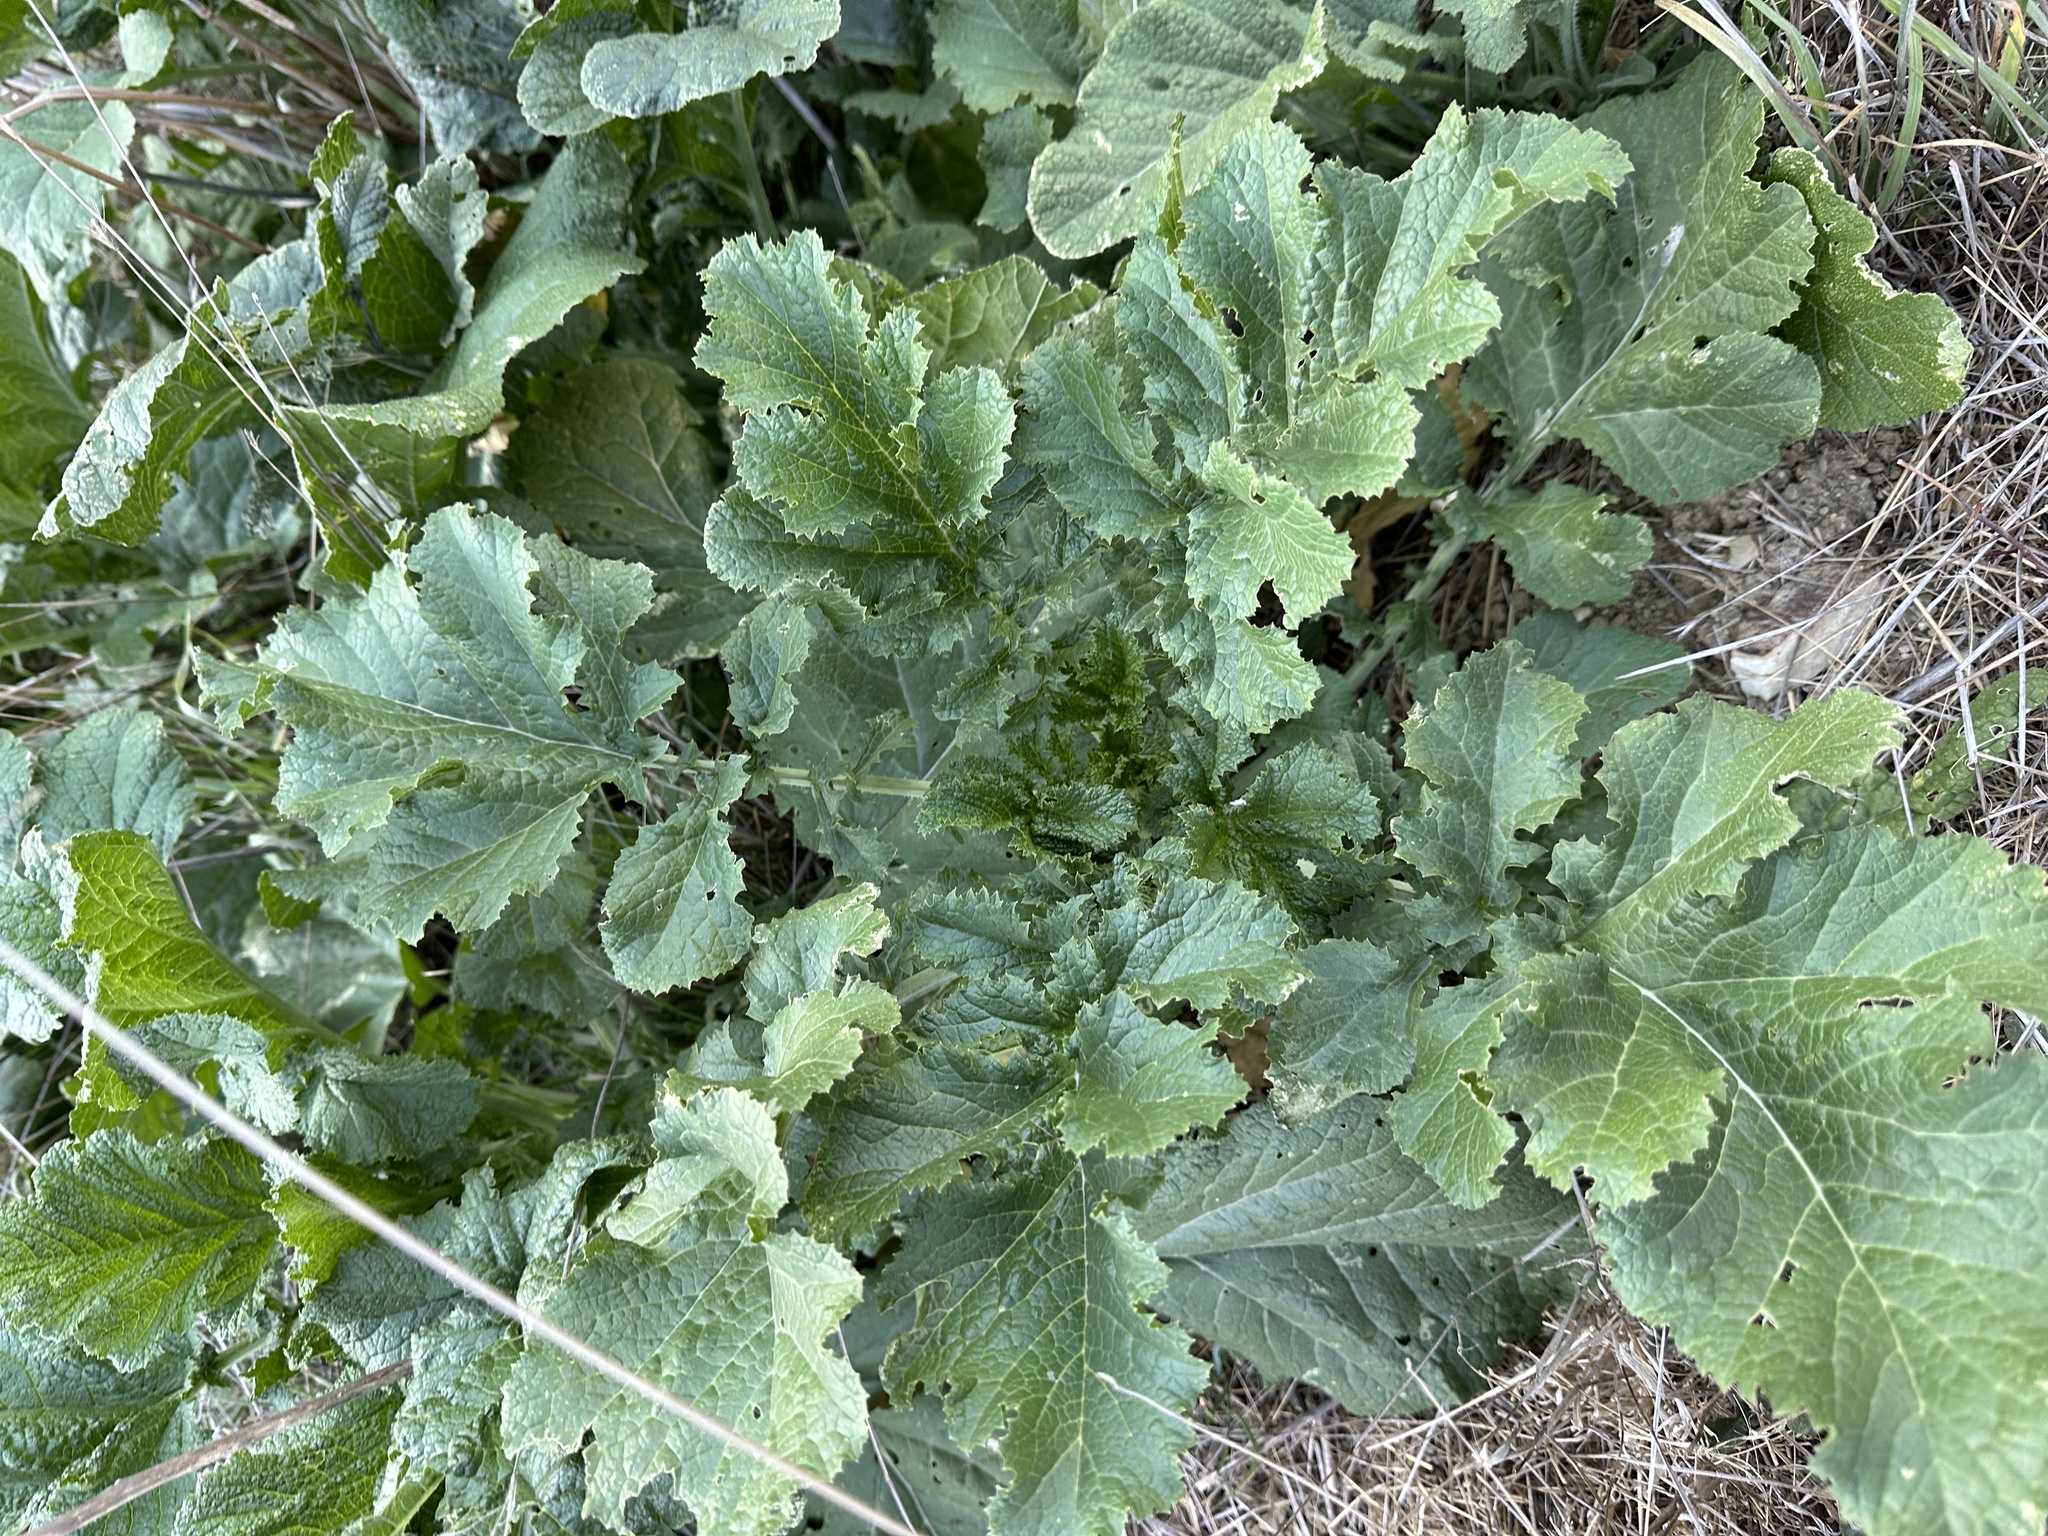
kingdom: Plantae
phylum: Tracheophyta
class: Magnoliopsida
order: Brassicales
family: Brassicaceae
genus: Brassica
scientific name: Brassica nigra
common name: Black mustard
